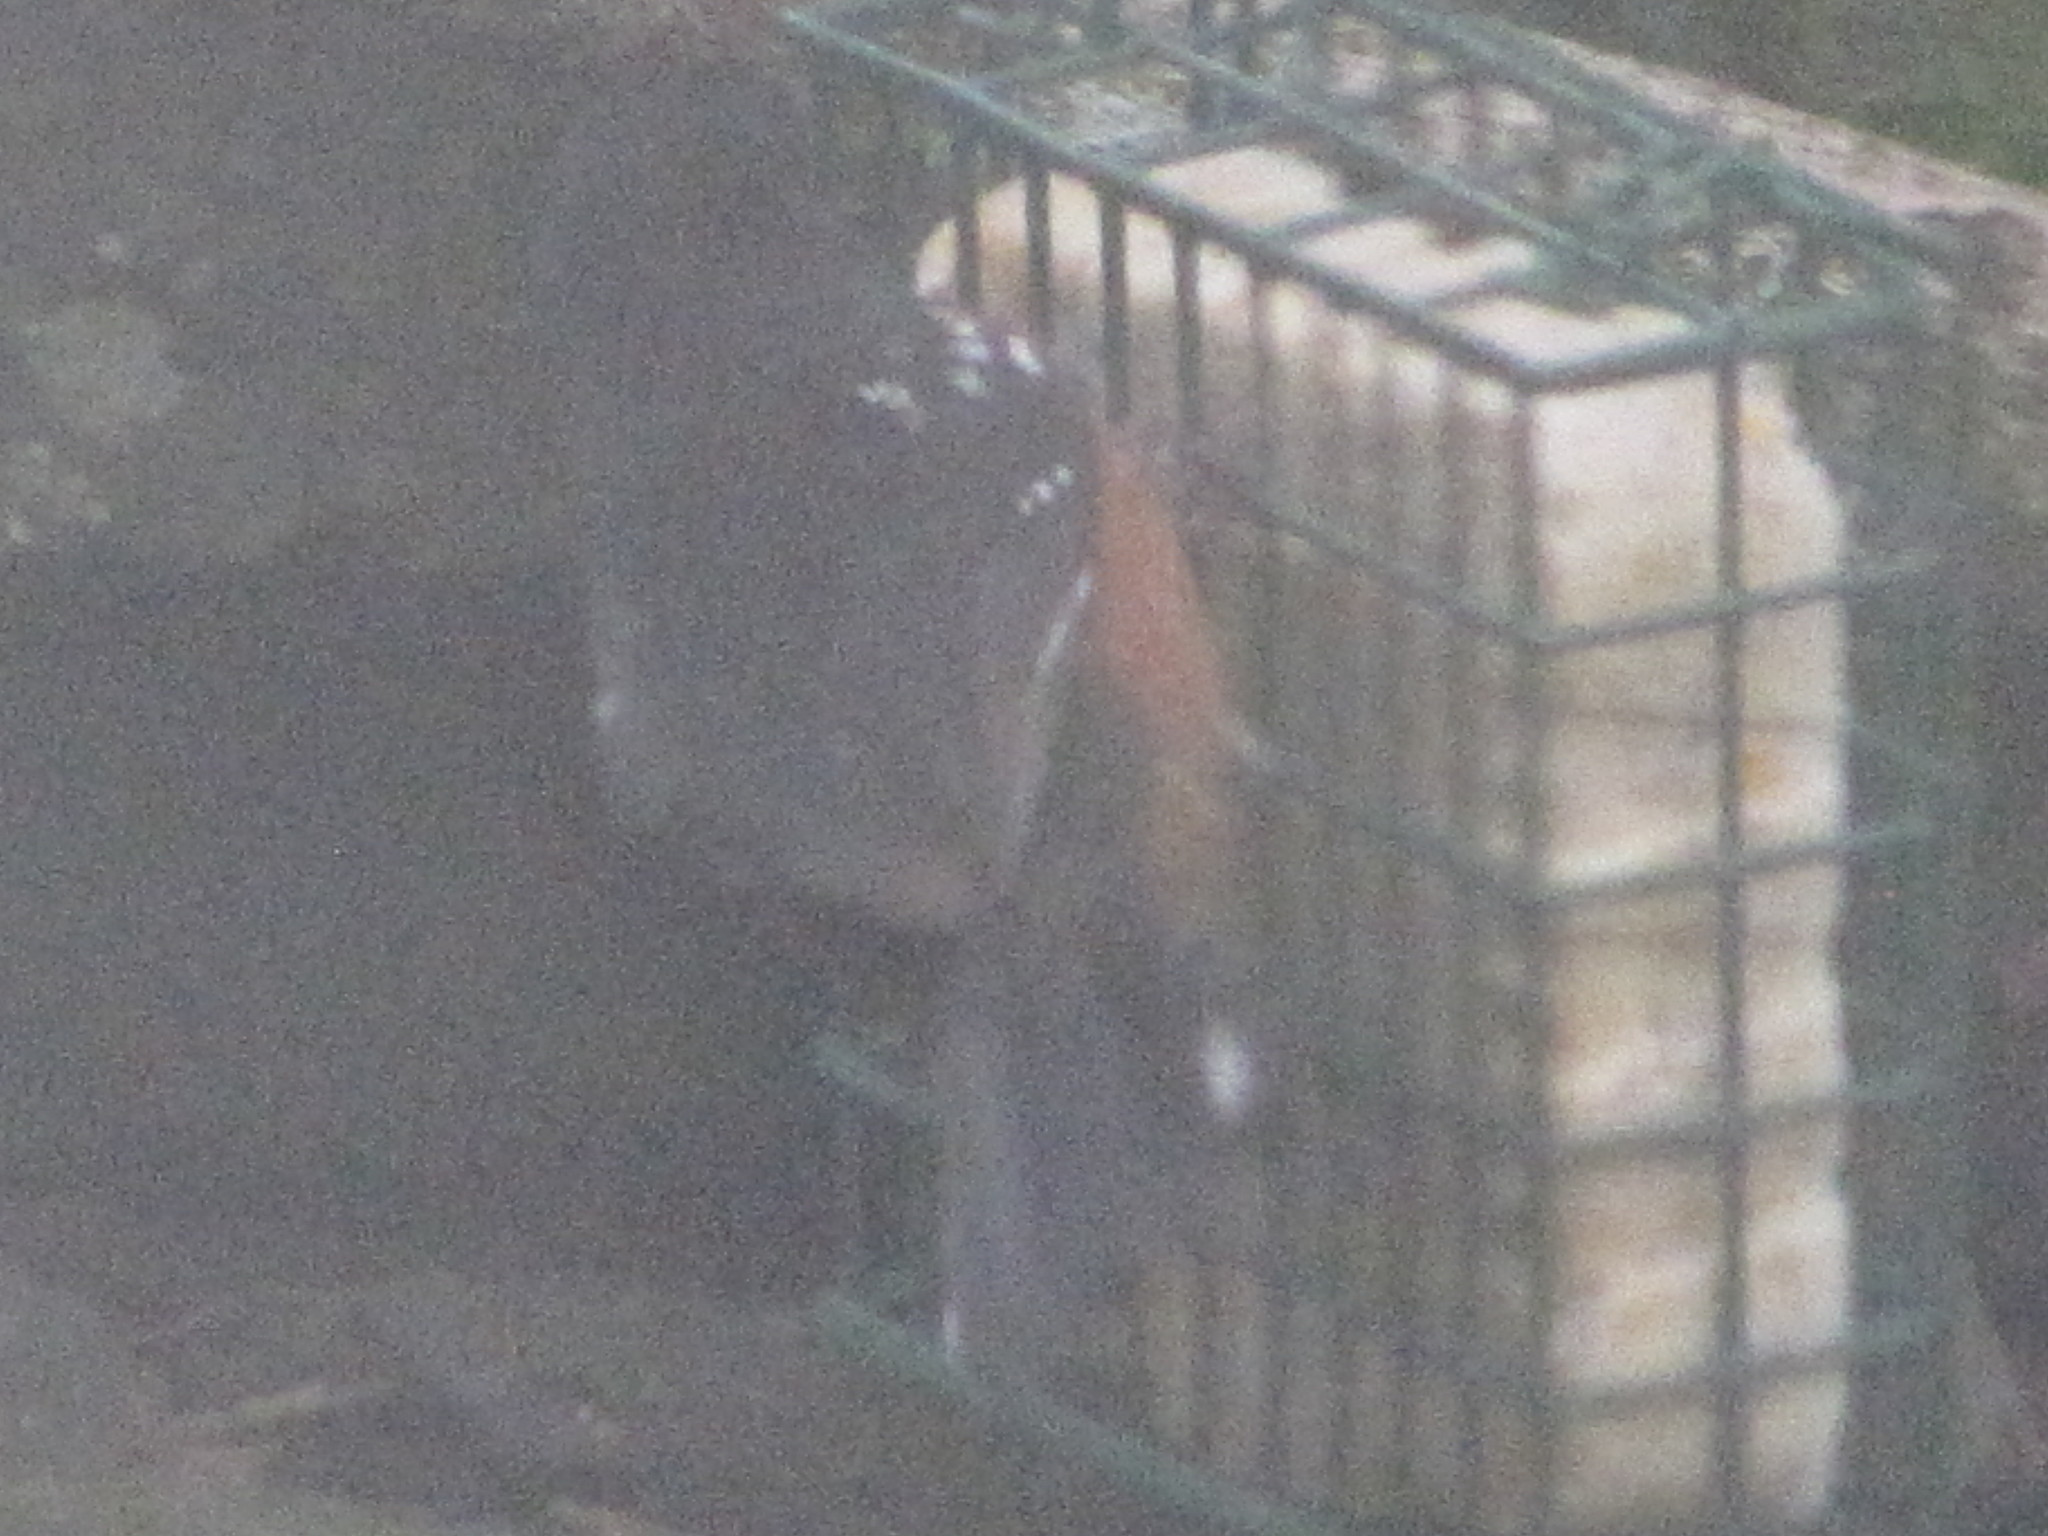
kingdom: Animalia
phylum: Chordata
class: Aves
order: Passeriformes
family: Passerellidae
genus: Pipilo
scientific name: Pipilo maculatus
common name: Spotted towhee
